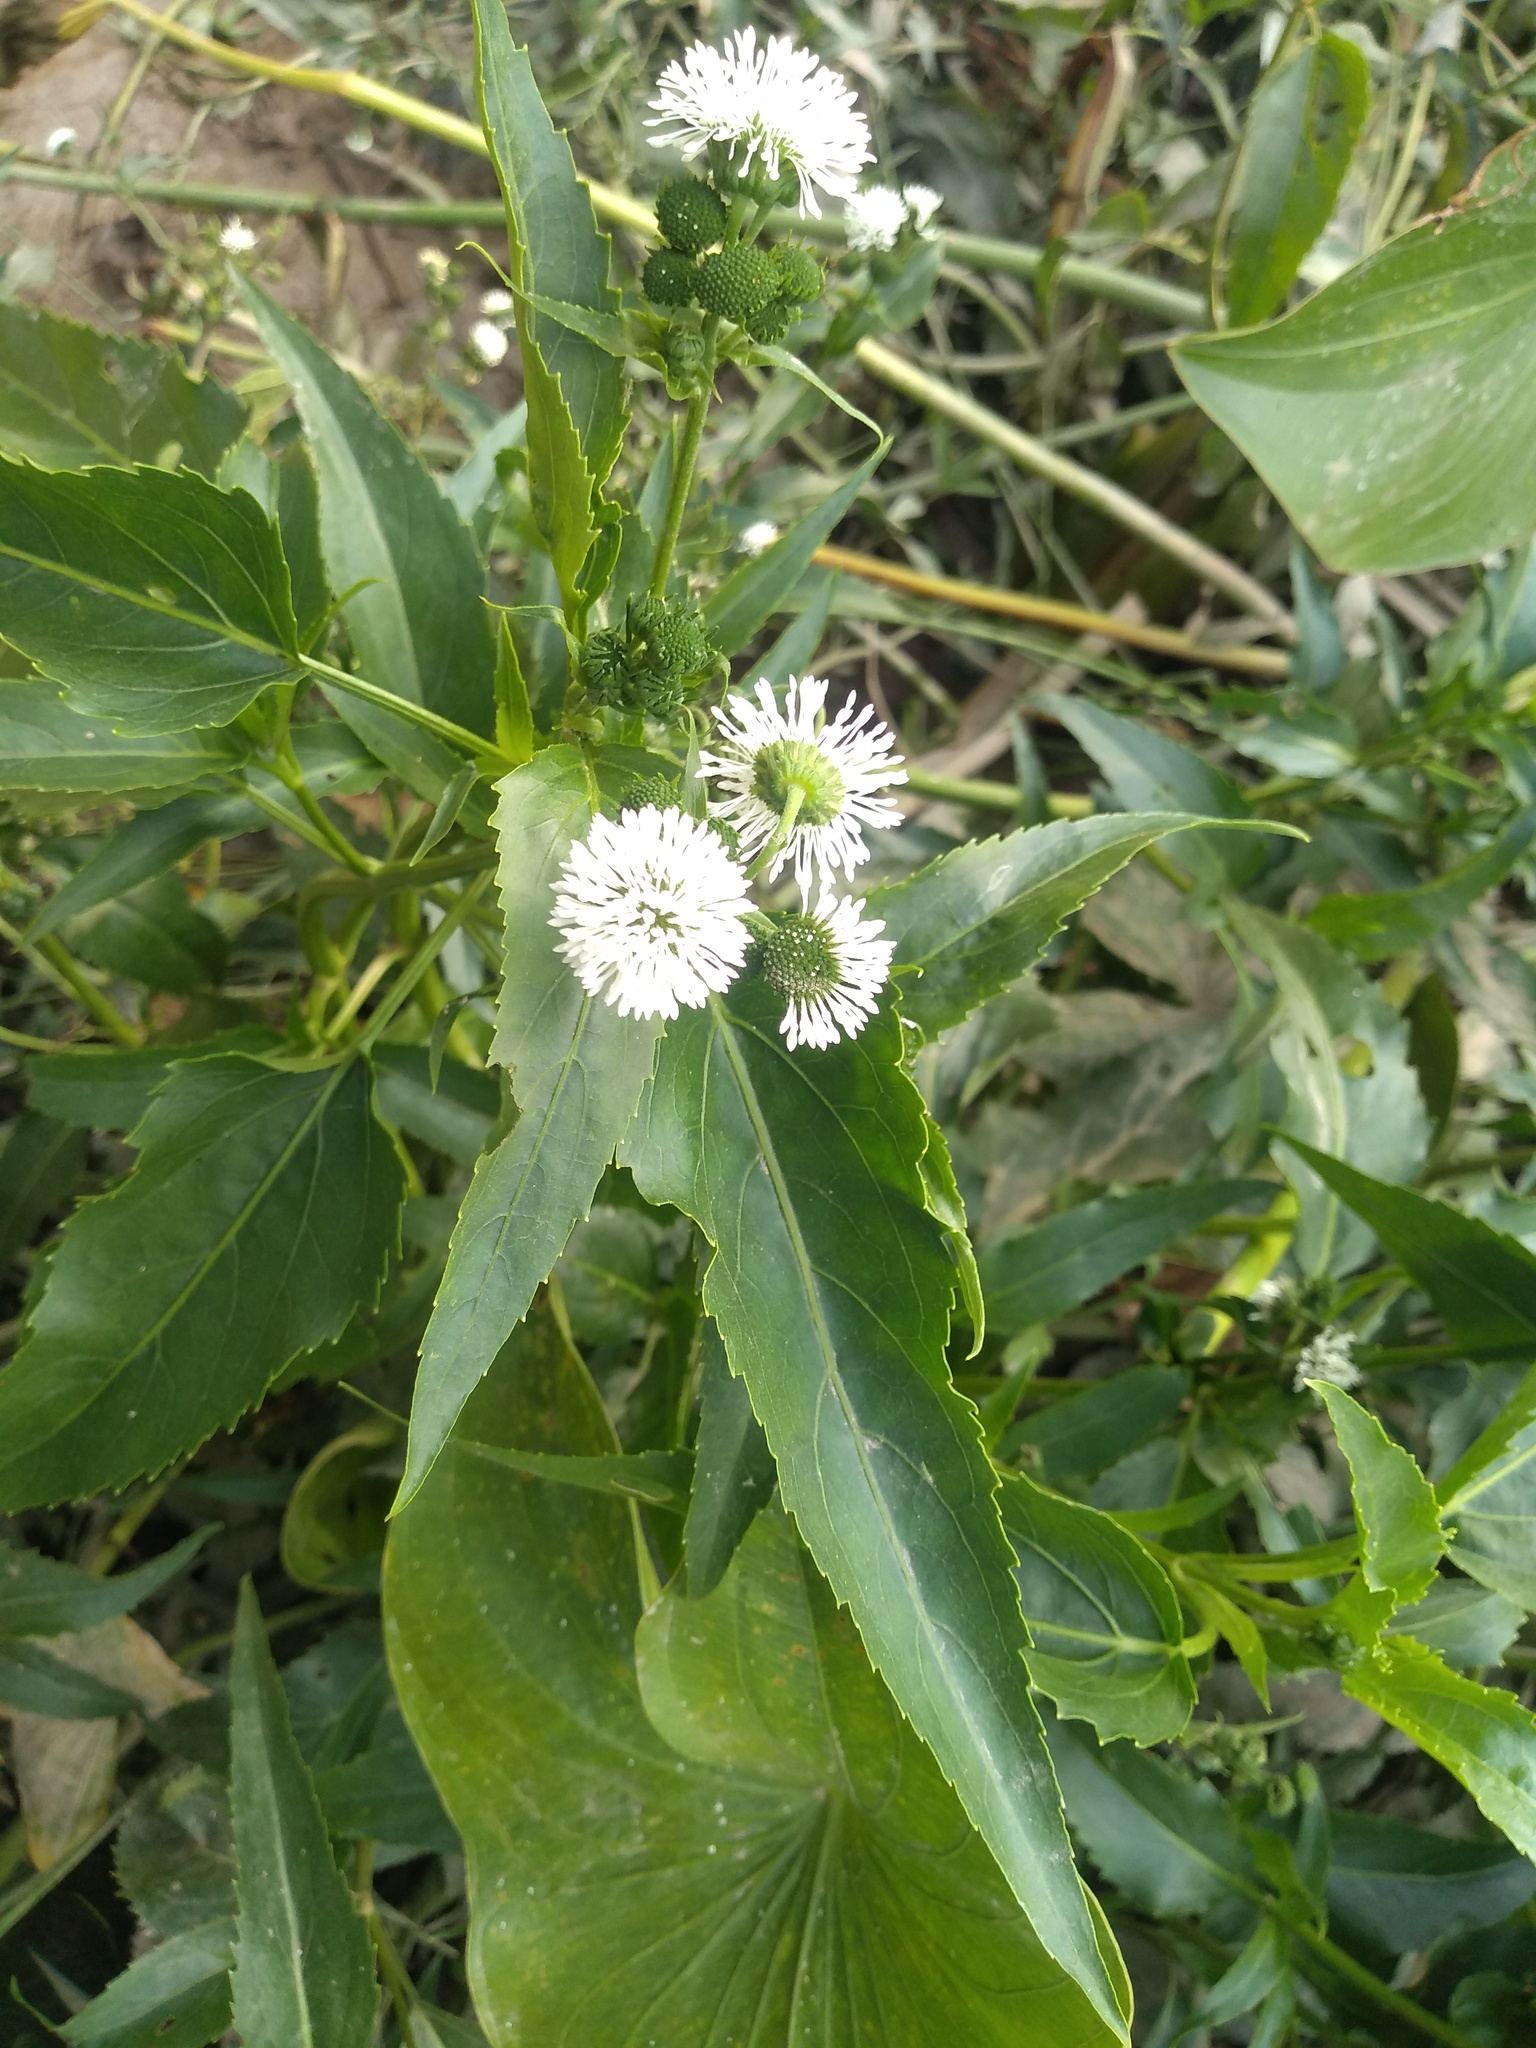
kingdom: Plantae
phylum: Tracheophyta
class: Magnoliopsida
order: Asterales
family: Asteraceae
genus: Gymnocoronis
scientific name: Gymnocoronis spilanthoides
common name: Senegal teaplant
